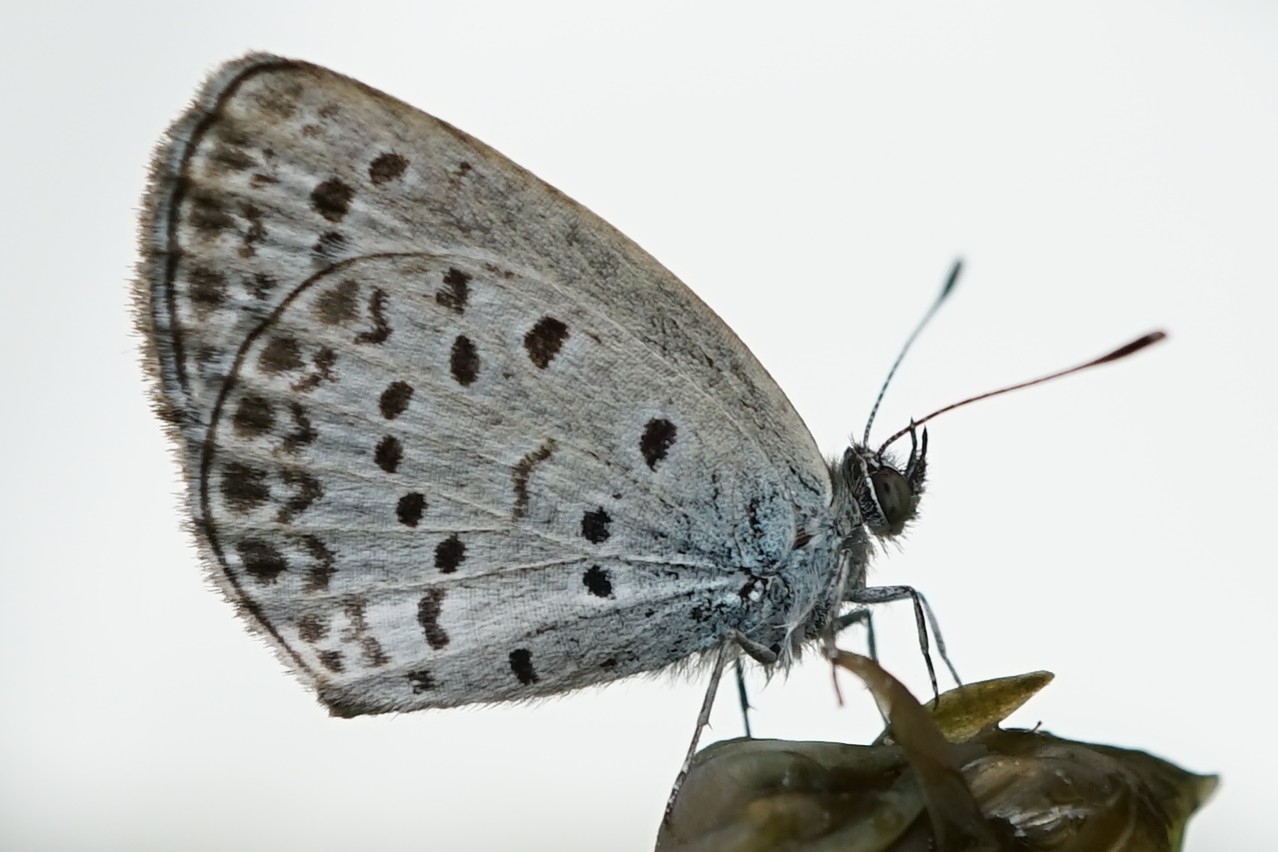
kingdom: Animalia
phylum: Arthropoda
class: Insecta
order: Lepidoptera
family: Lycaenidae
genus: Pseudozizeeria
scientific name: Pseudozizeeria maha
